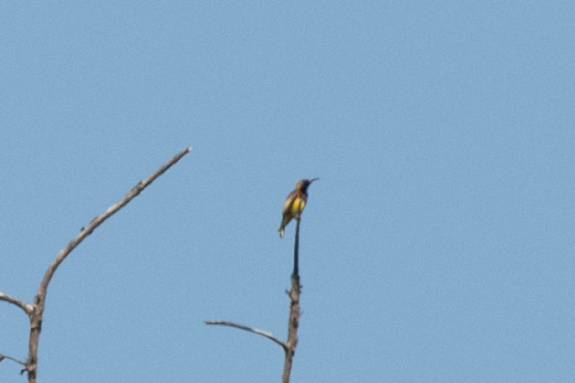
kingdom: Animalia
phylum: Chordata
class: Aves
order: Passeriformes
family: Nectariniidae
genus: Cinnyris
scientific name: Cinnyris
